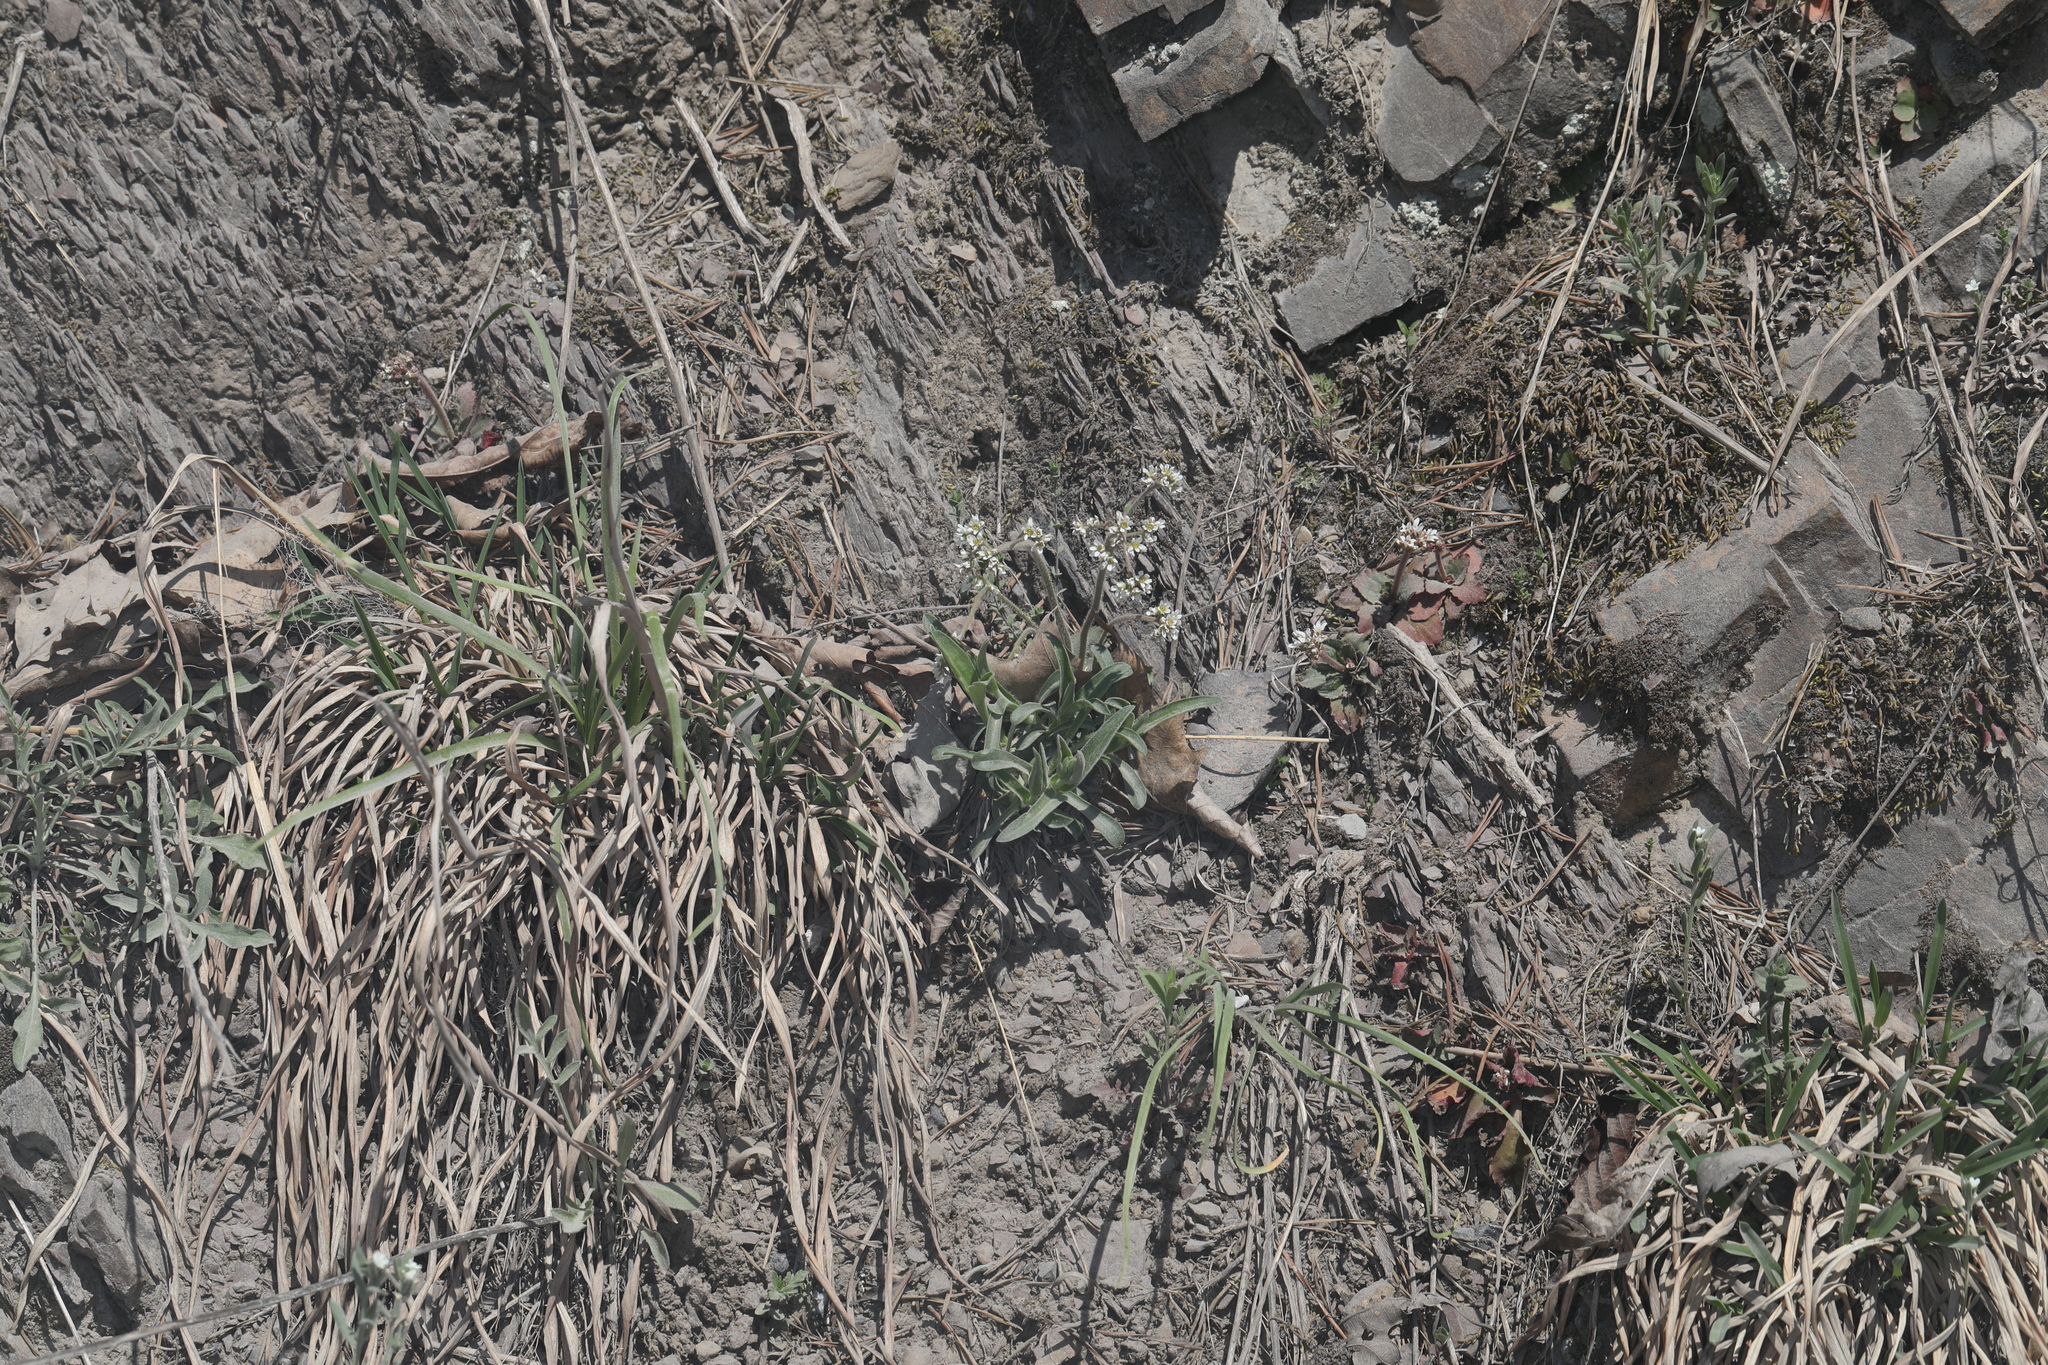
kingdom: Plantae
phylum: Tracheophyta
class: Magnoliopsida
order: Saxifragales
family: Saxifragaceae
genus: Micranthes
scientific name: Micranthes virginiensis
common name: Early saxifrage
